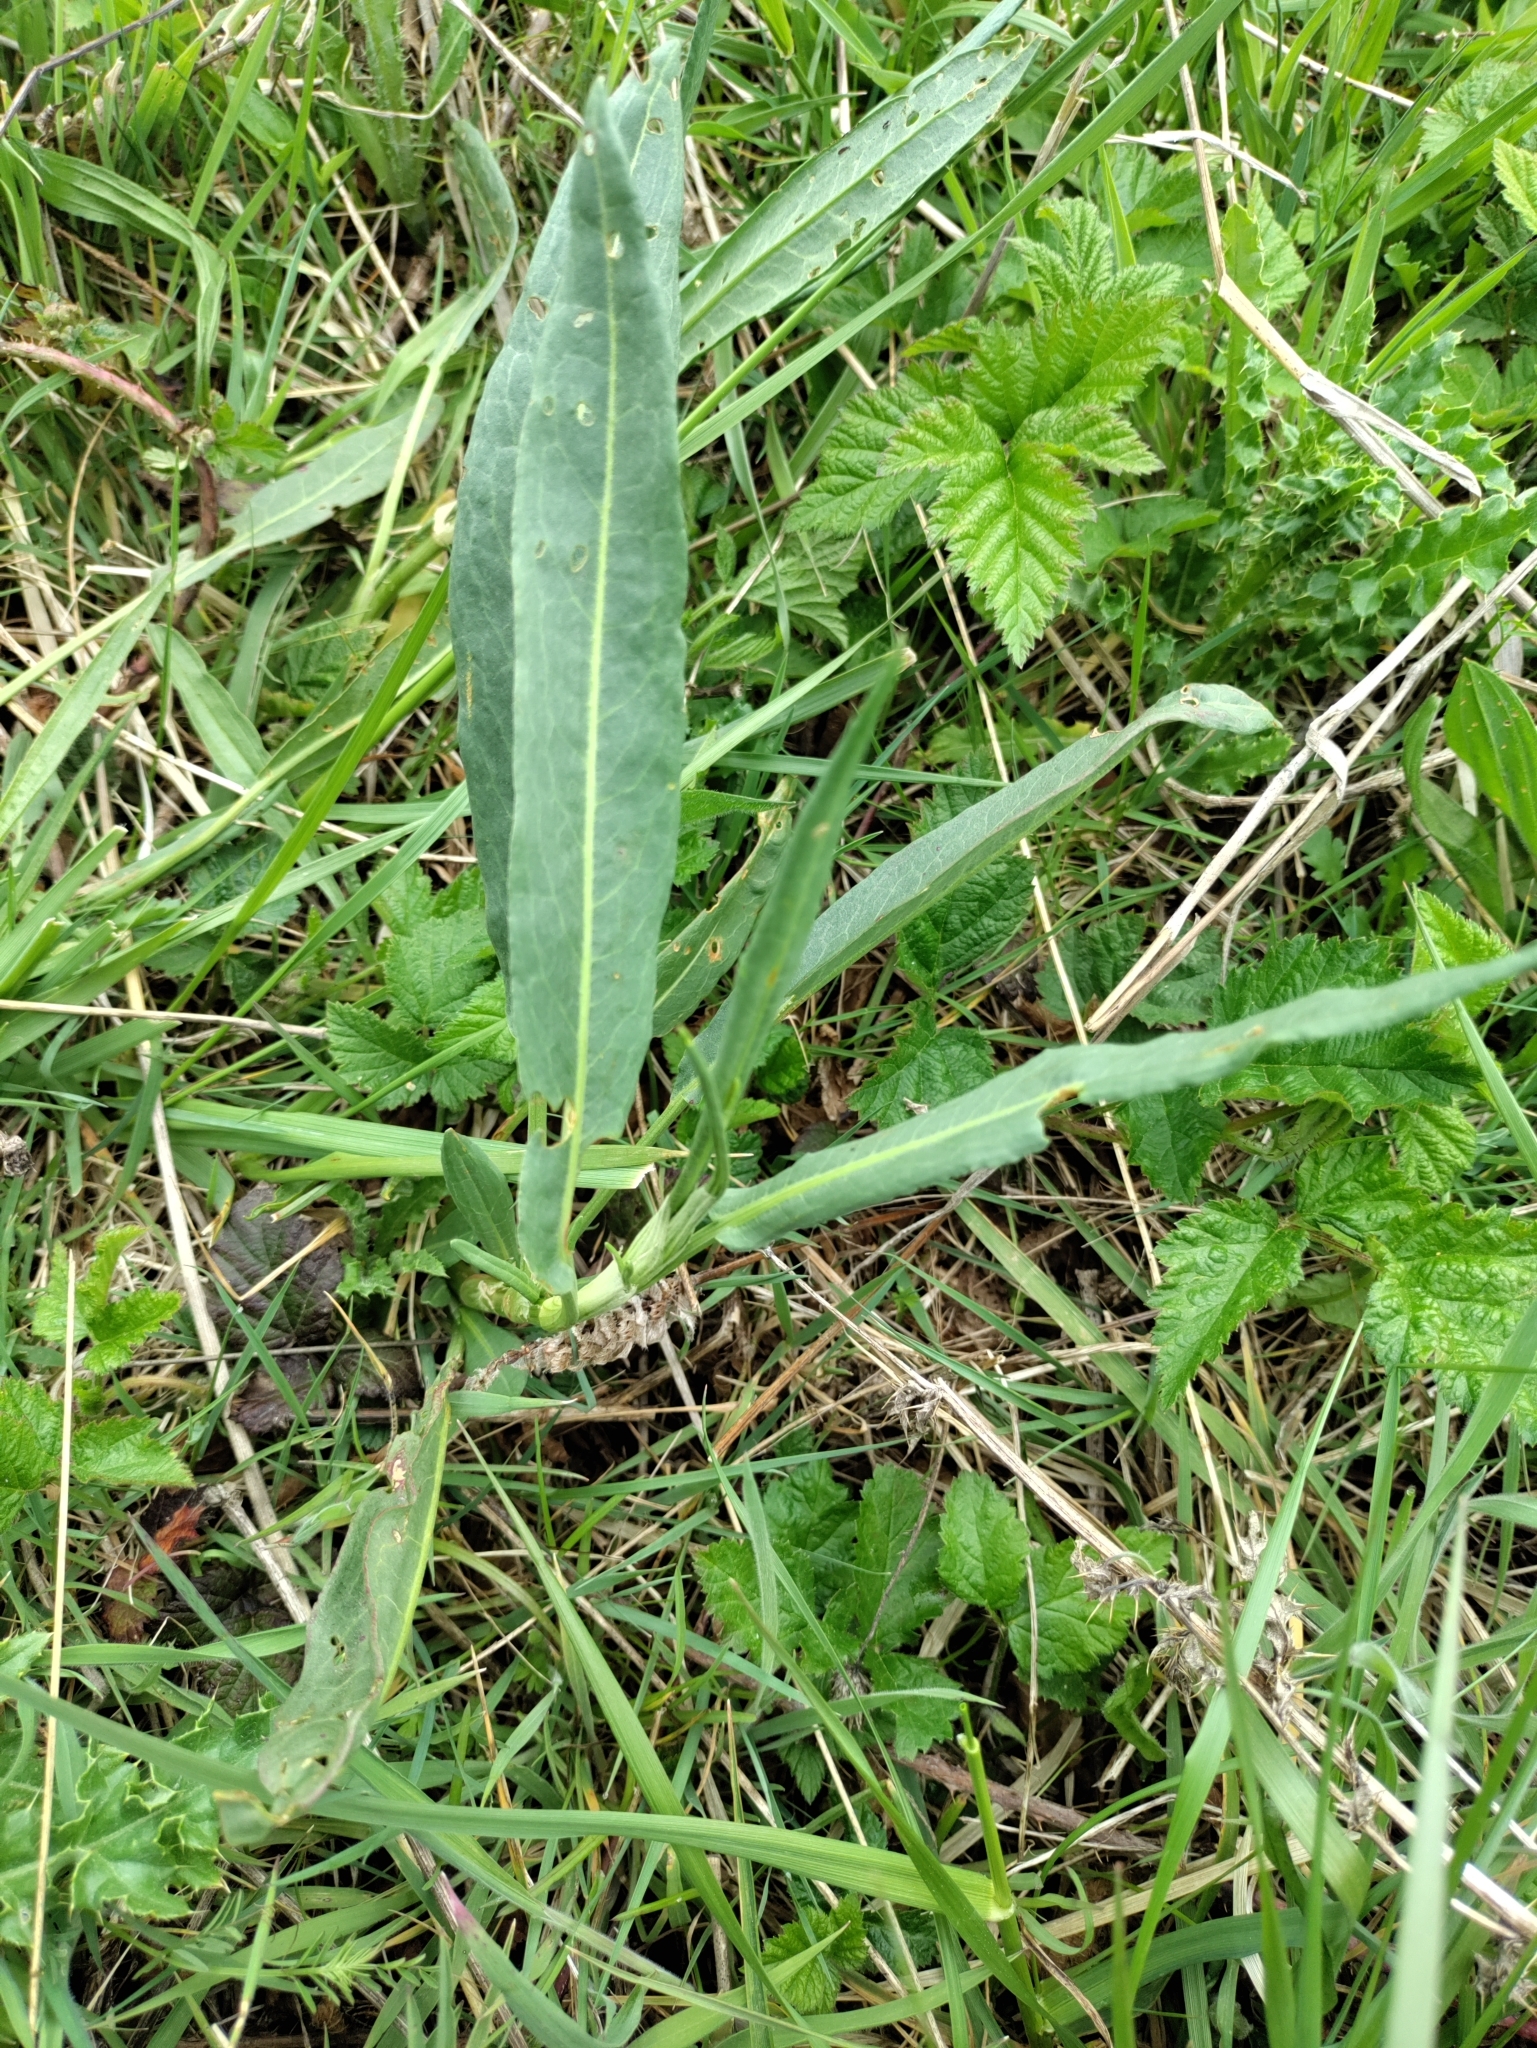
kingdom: Plantae
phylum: Tracheophyta
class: Magnoliopsida
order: Caryophyllales
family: Polygonaceae
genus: Rumex
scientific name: Rumex salicifolius
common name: Willow-leaved dock
